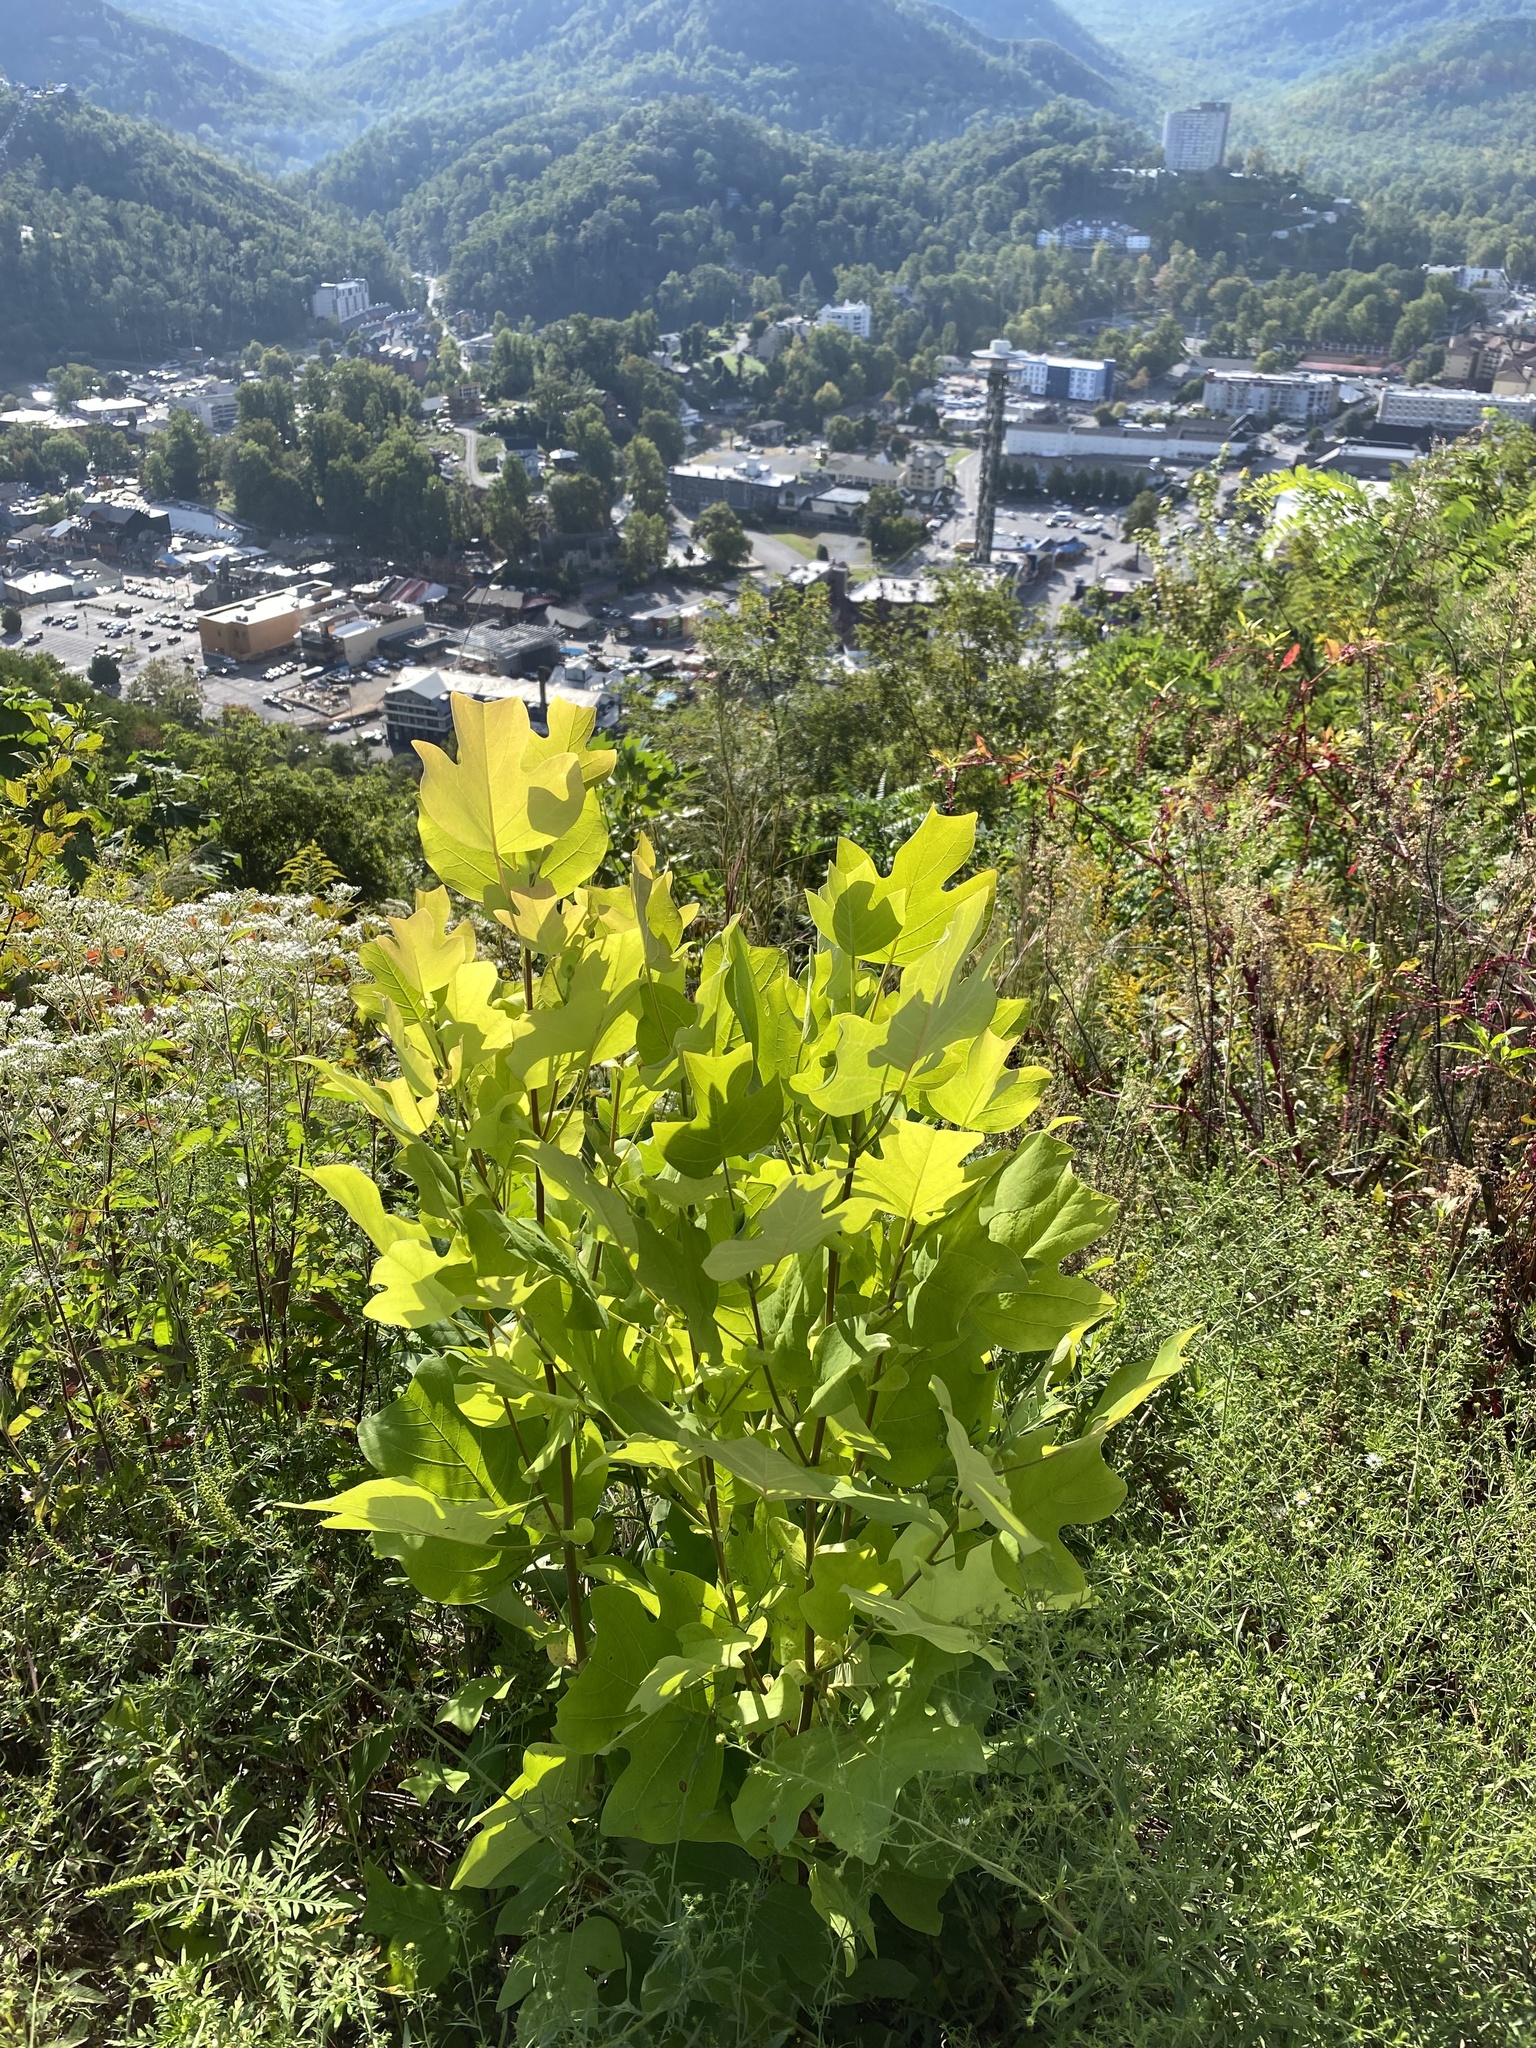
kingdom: Plantae
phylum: Tracheophyta
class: Magnoliopsida
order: Magnoliales
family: Magnoliaceae
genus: Liriodendron
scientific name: Liriodendron tulipifera
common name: Tulip tree
